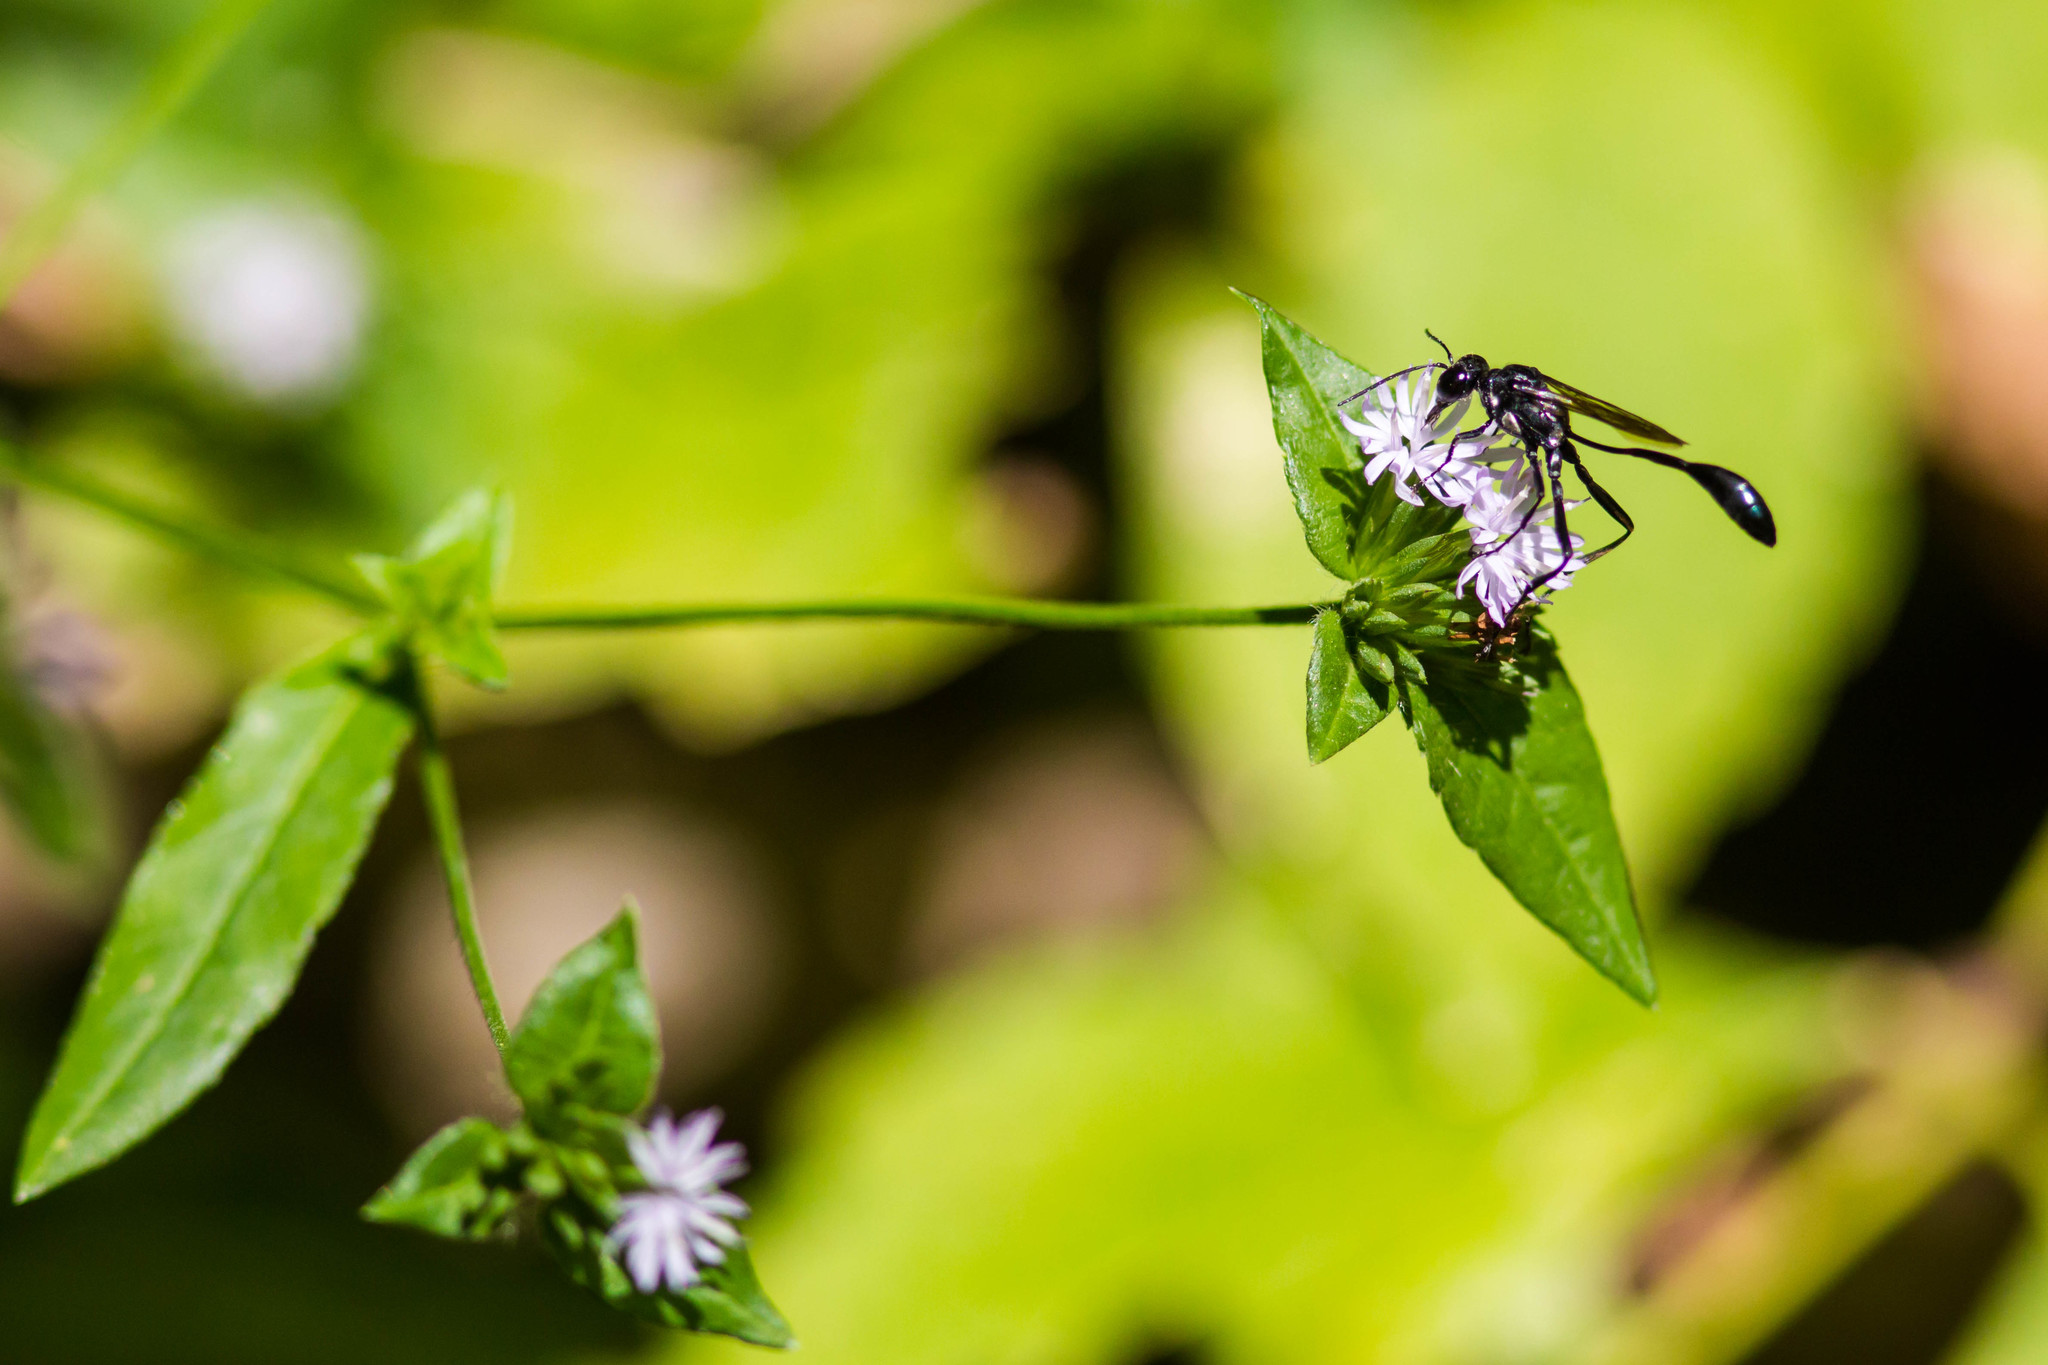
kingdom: Animalia
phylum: Arthropoda
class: Insecta
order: Hymenoptera
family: Sphecidae
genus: Eremnophila
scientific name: Eremnophila aureonotata
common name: Gold-marked thread-waisted wasp
